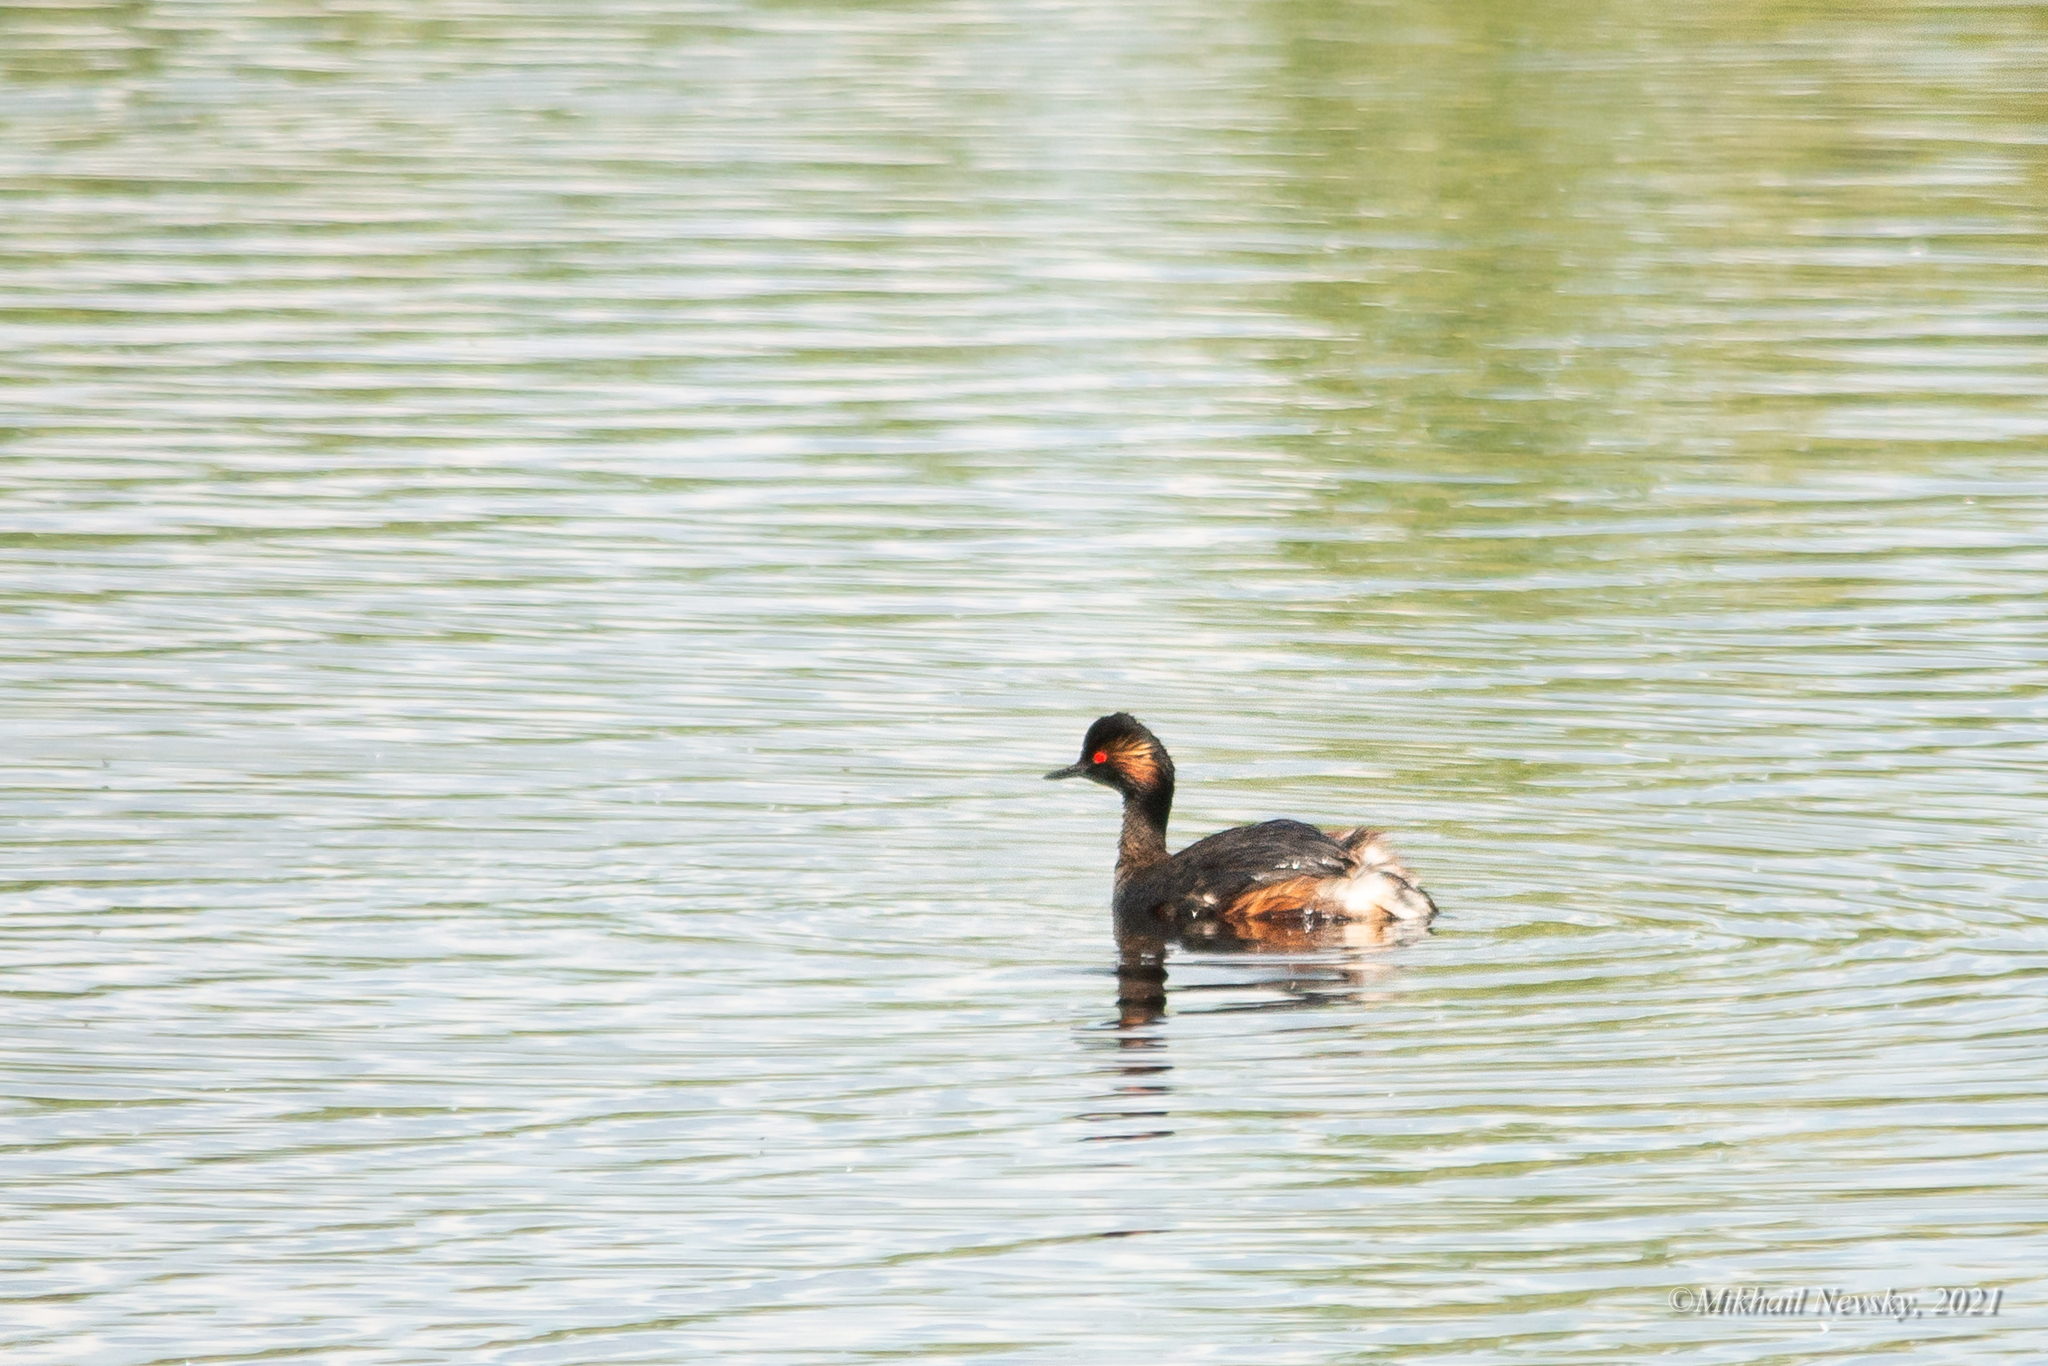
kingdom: Animalia
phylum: Chordata
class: Aves
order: Podicipediformes
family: Podicipedidae
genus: Podiceps
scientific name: Podiceps nigricollis
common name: Black-necked grebe
